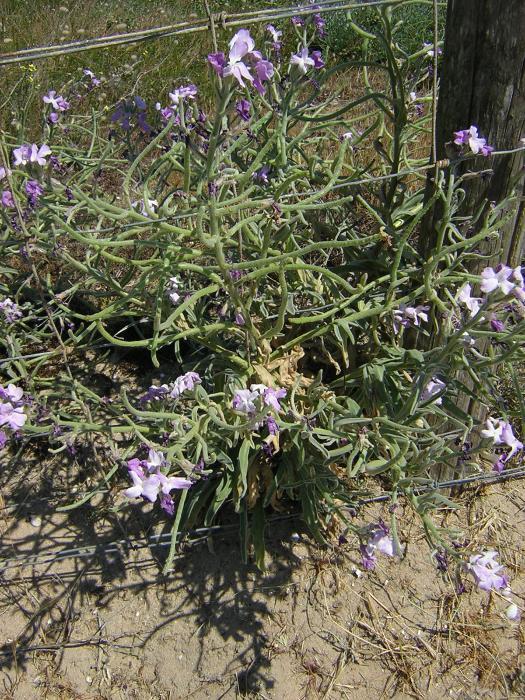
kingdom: Plantae
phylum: Tracheophyta
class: Magnoliopsida
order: Brassicales
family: Brassicaceae
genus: Matthiola
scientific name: Matthiola sinuata
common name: Sea stock
